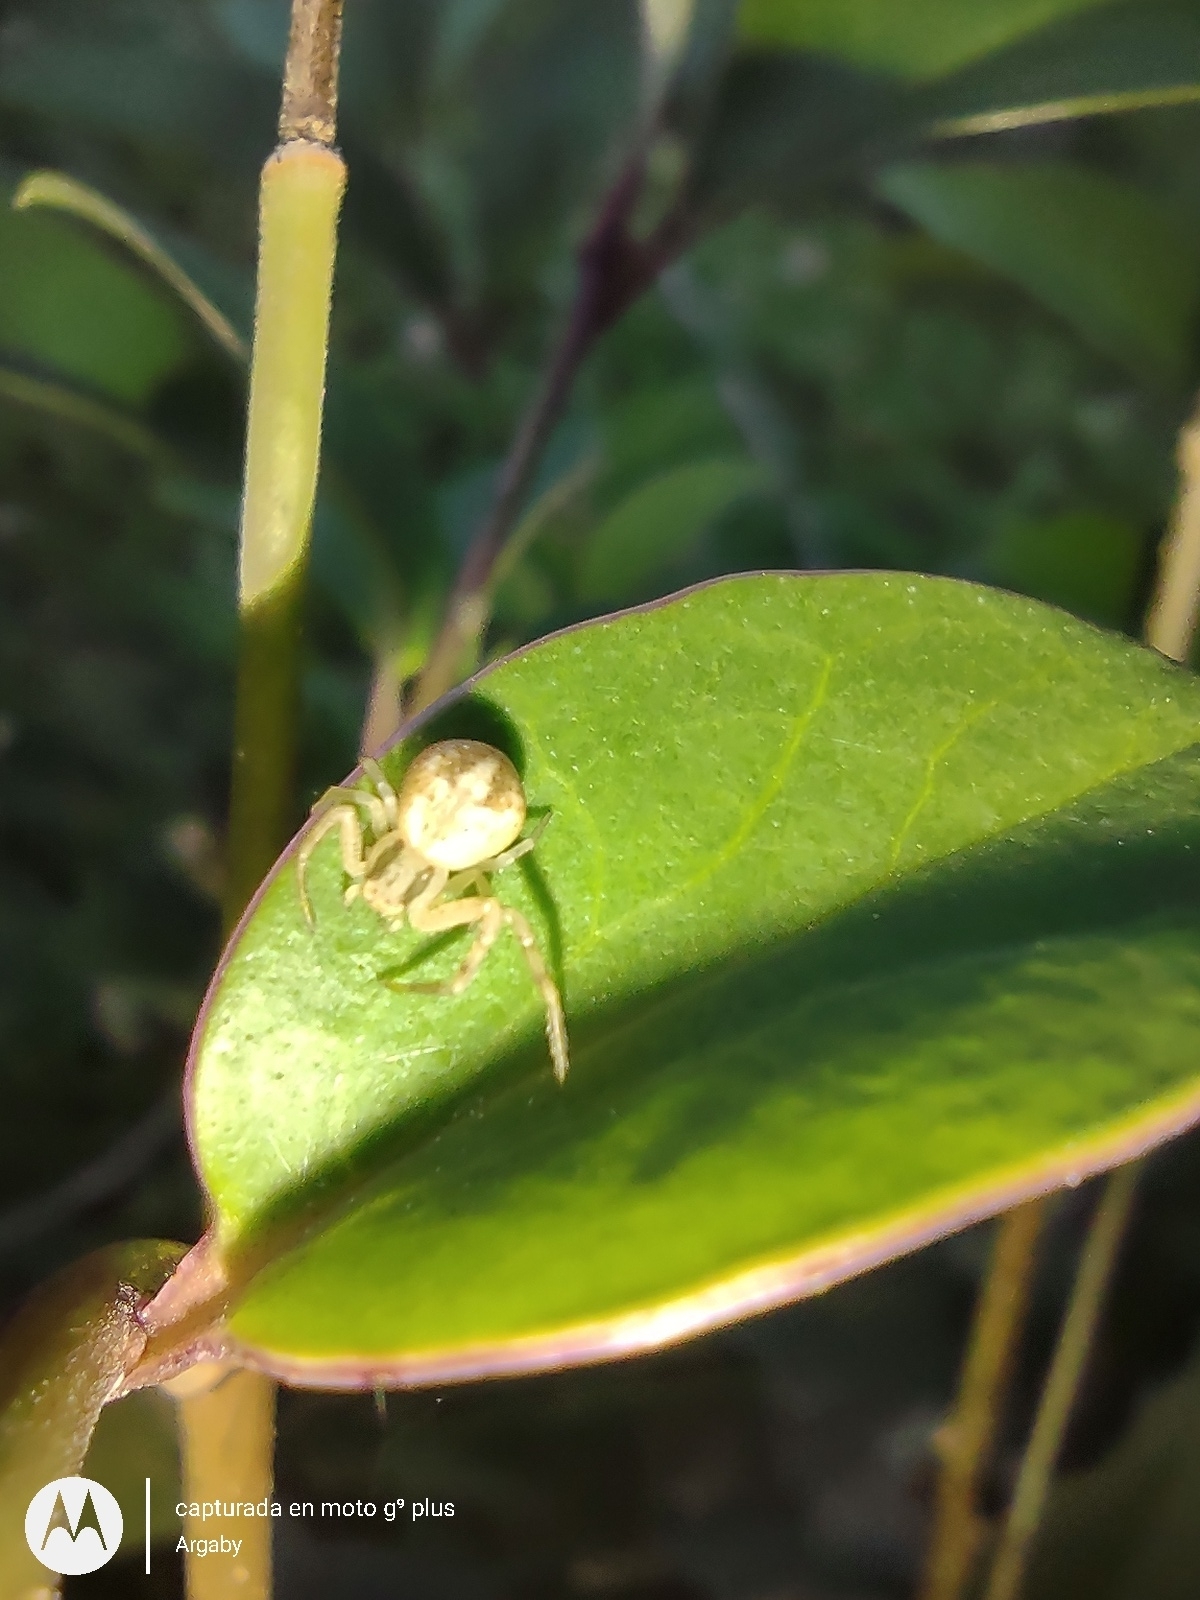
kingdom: Animalia
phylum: Arthropoda
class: Arachnida
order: Araneae
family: Thomisidae
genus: Misumenops
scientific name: Misumenops
